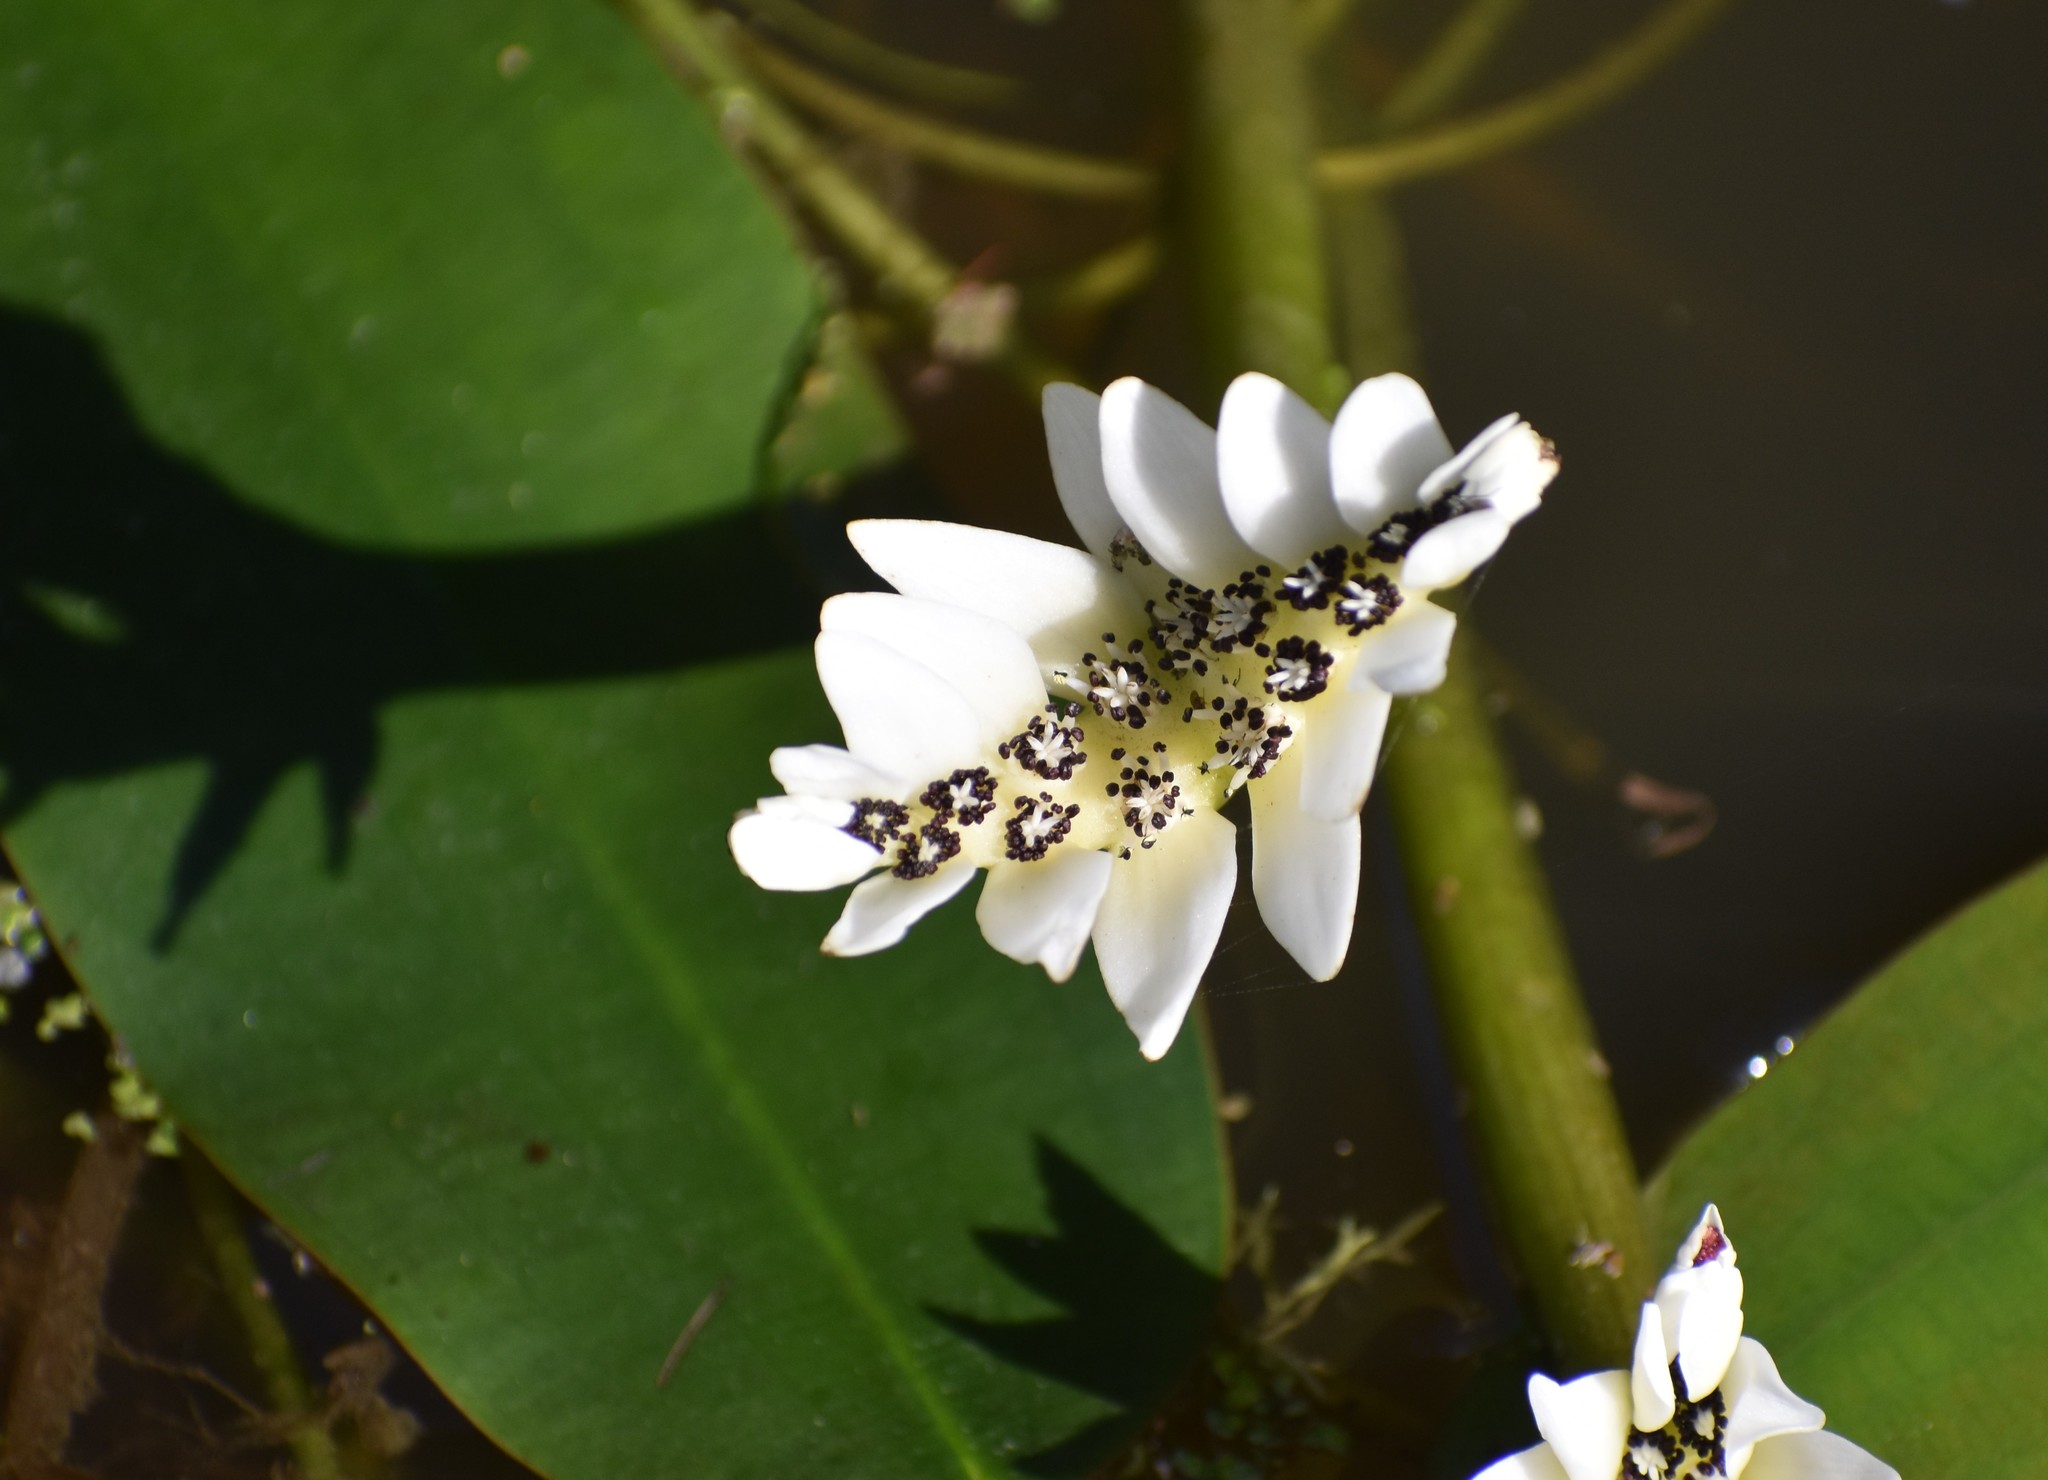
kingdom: Plantae
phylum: Tracheophyta
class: Liliopsida
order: Alismatales
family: Aponogetonaceae
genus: Aponogeton
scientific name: Aponogeton distachyos
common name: Cape-pondweed
